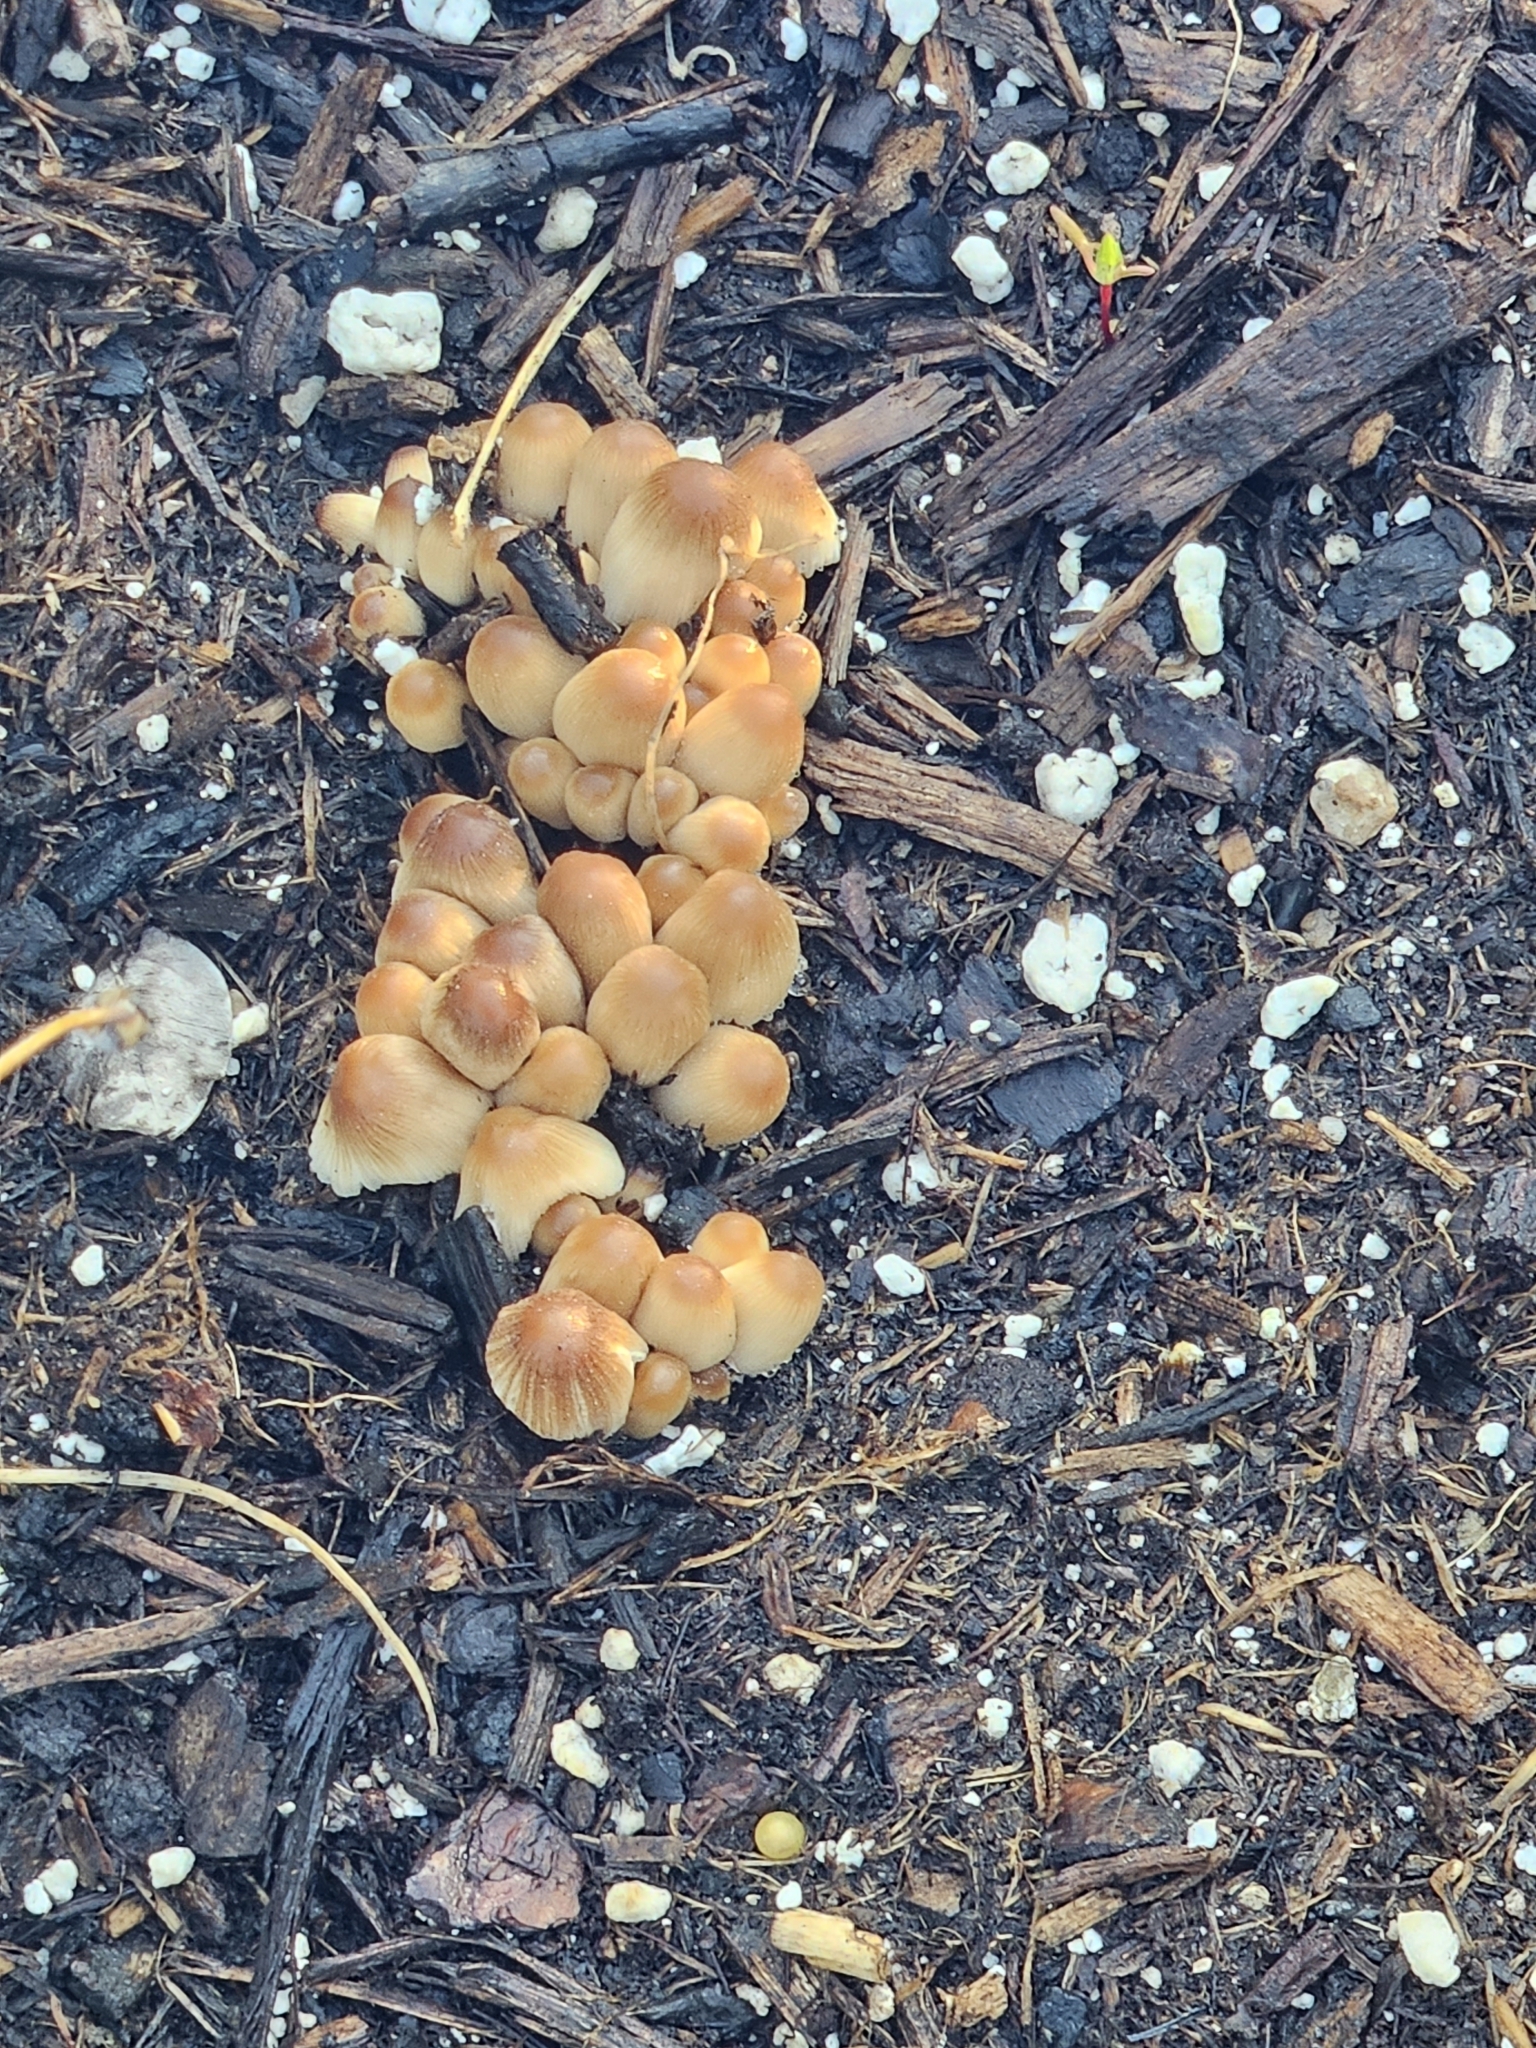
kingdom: Fungi
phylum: Basidiomycota
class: Agaricomycetes
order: Agaricales
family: Psathyrellaceae
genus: Coprinellus
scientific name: Coprinellus micaceus
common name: Glistening ink-cap
